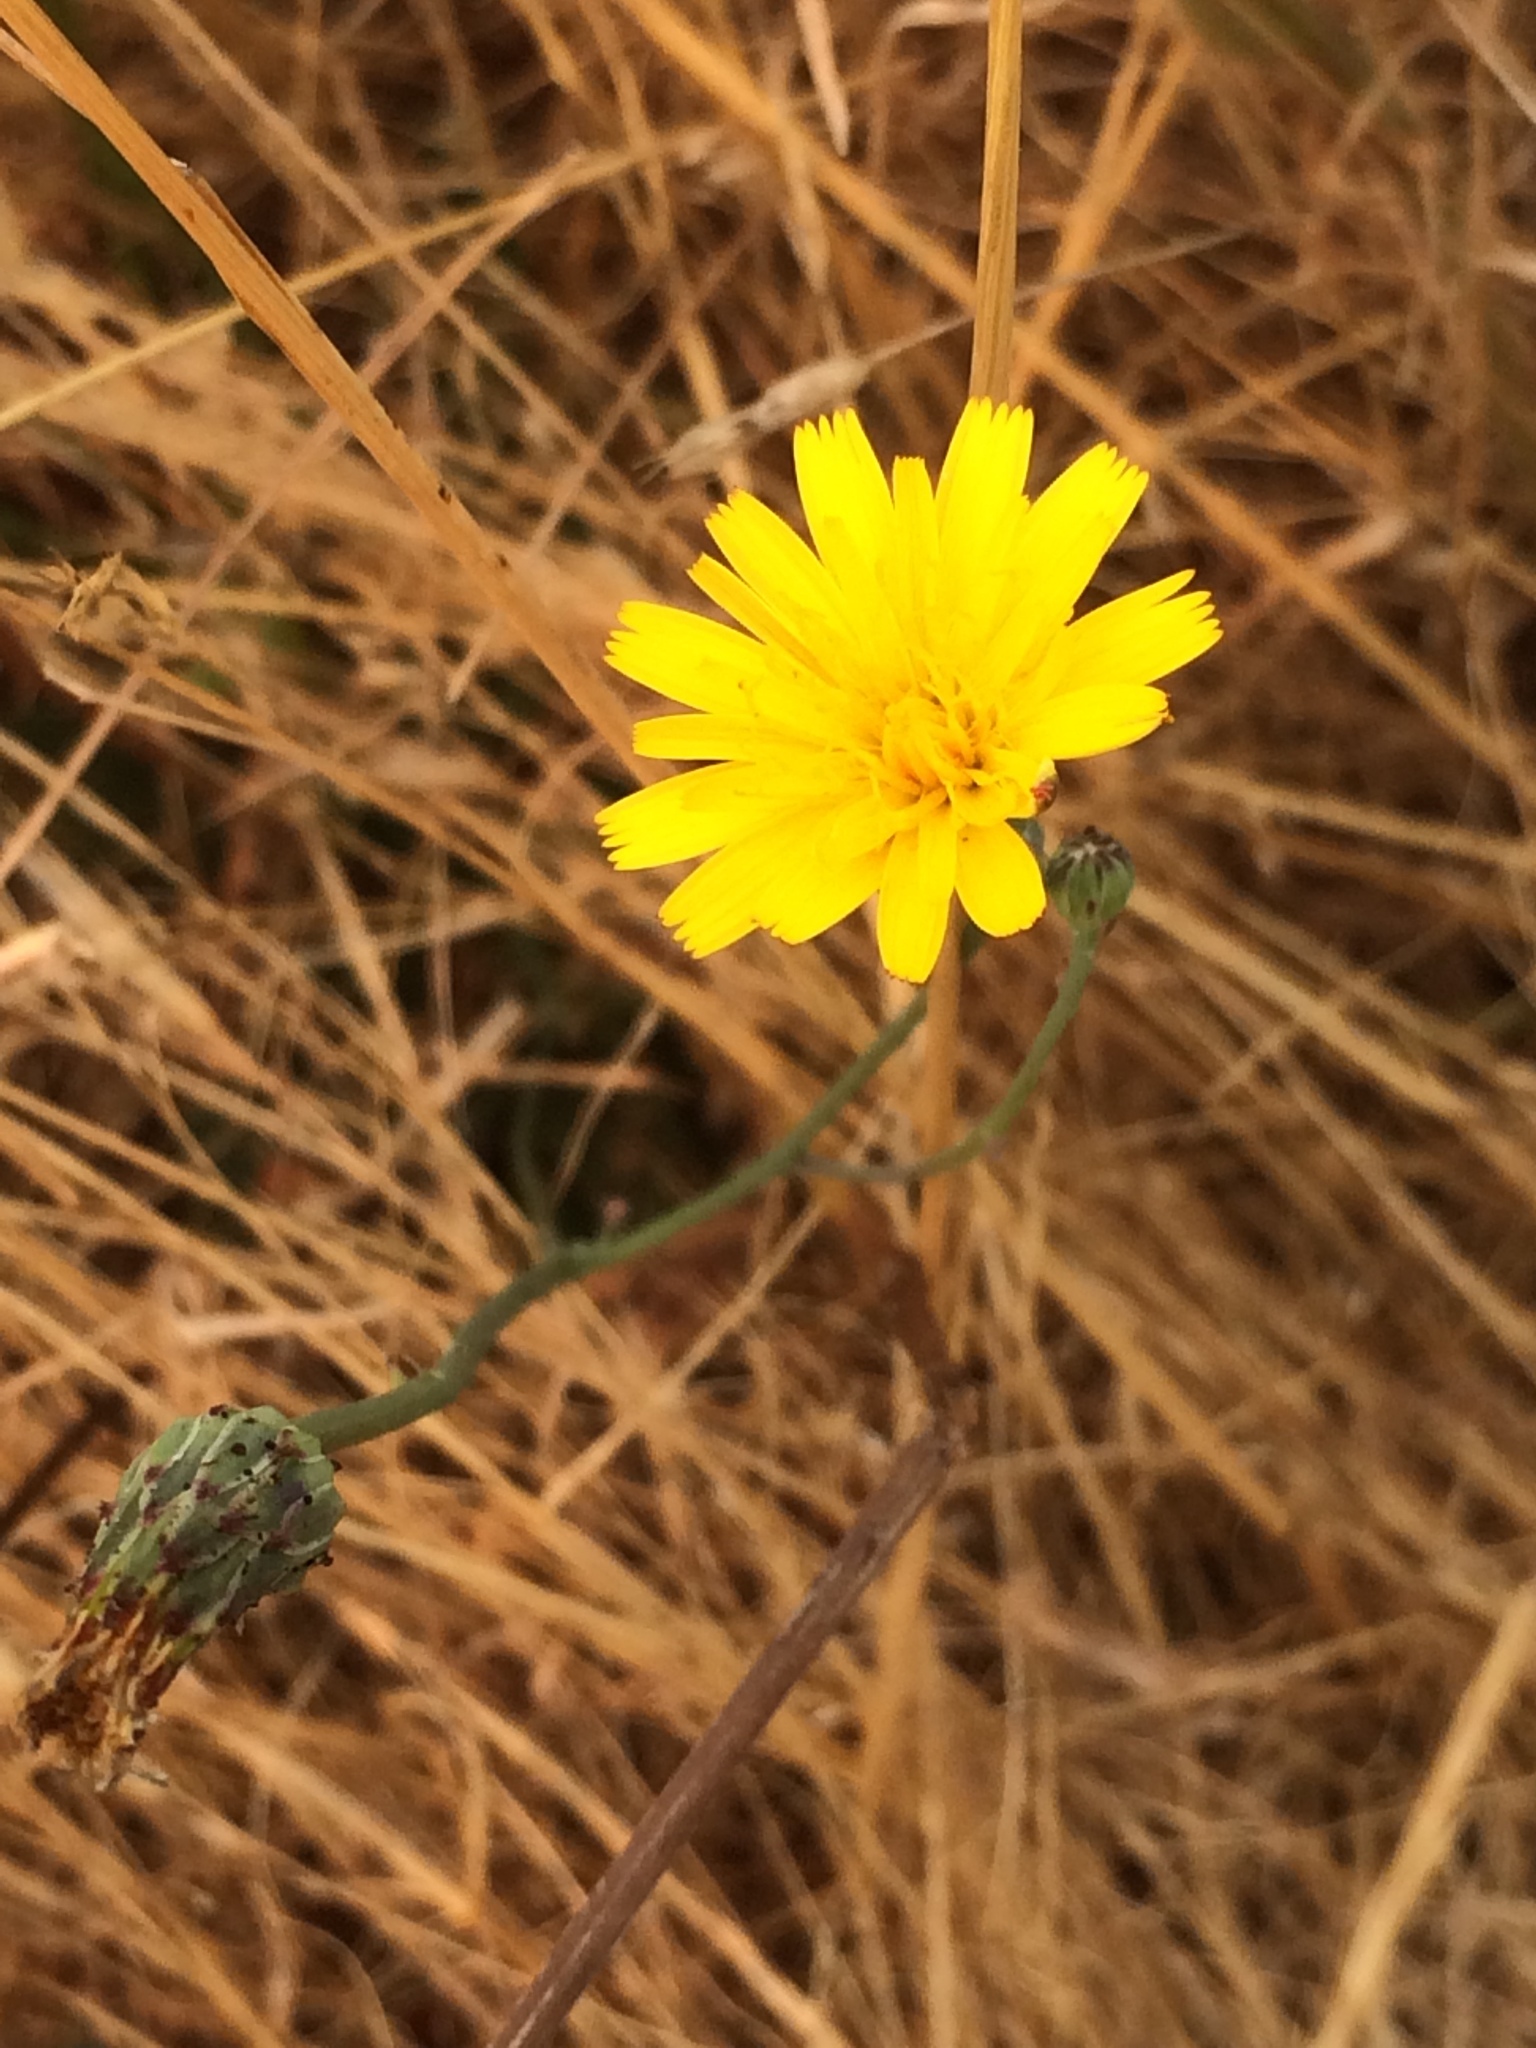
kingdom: Plantae
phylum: Tracheophyta
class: Magnoliopsida
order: Asterales
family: Asteraceae
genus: Hypochaeris
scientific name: Hypochaeris radicata
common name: Flatweed
